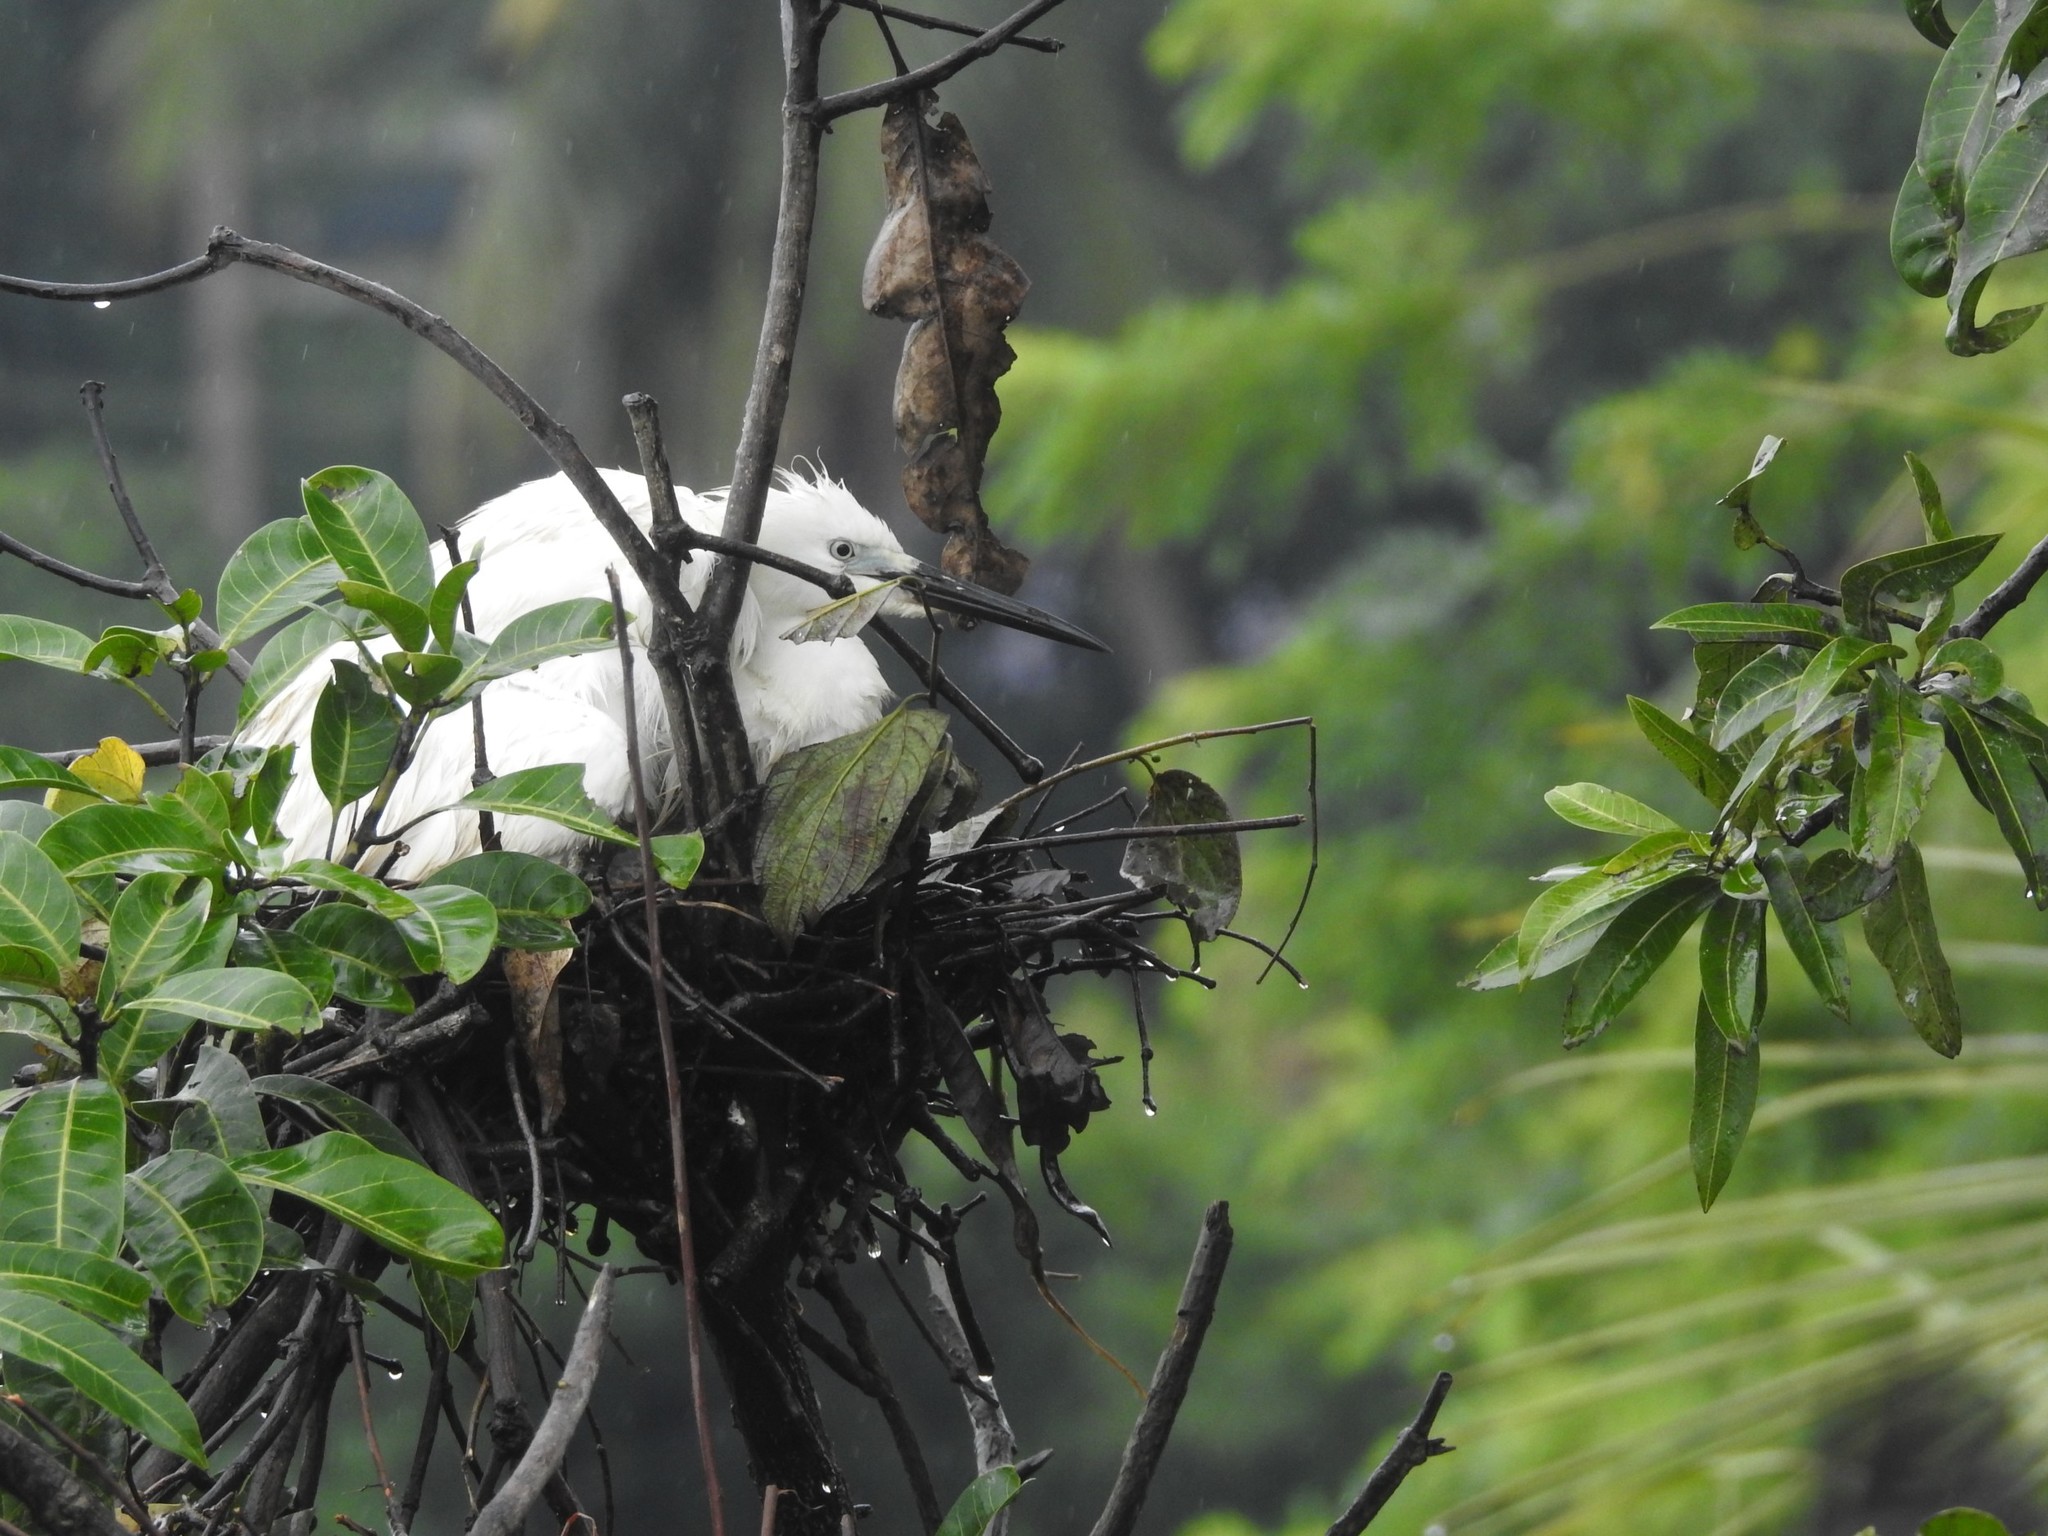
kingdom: Animalia
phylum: Chordata
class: Aves
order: Pelecaniformes
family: Ardeidae
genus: Egretta
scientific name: Egretta garzetta
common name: Little egret
